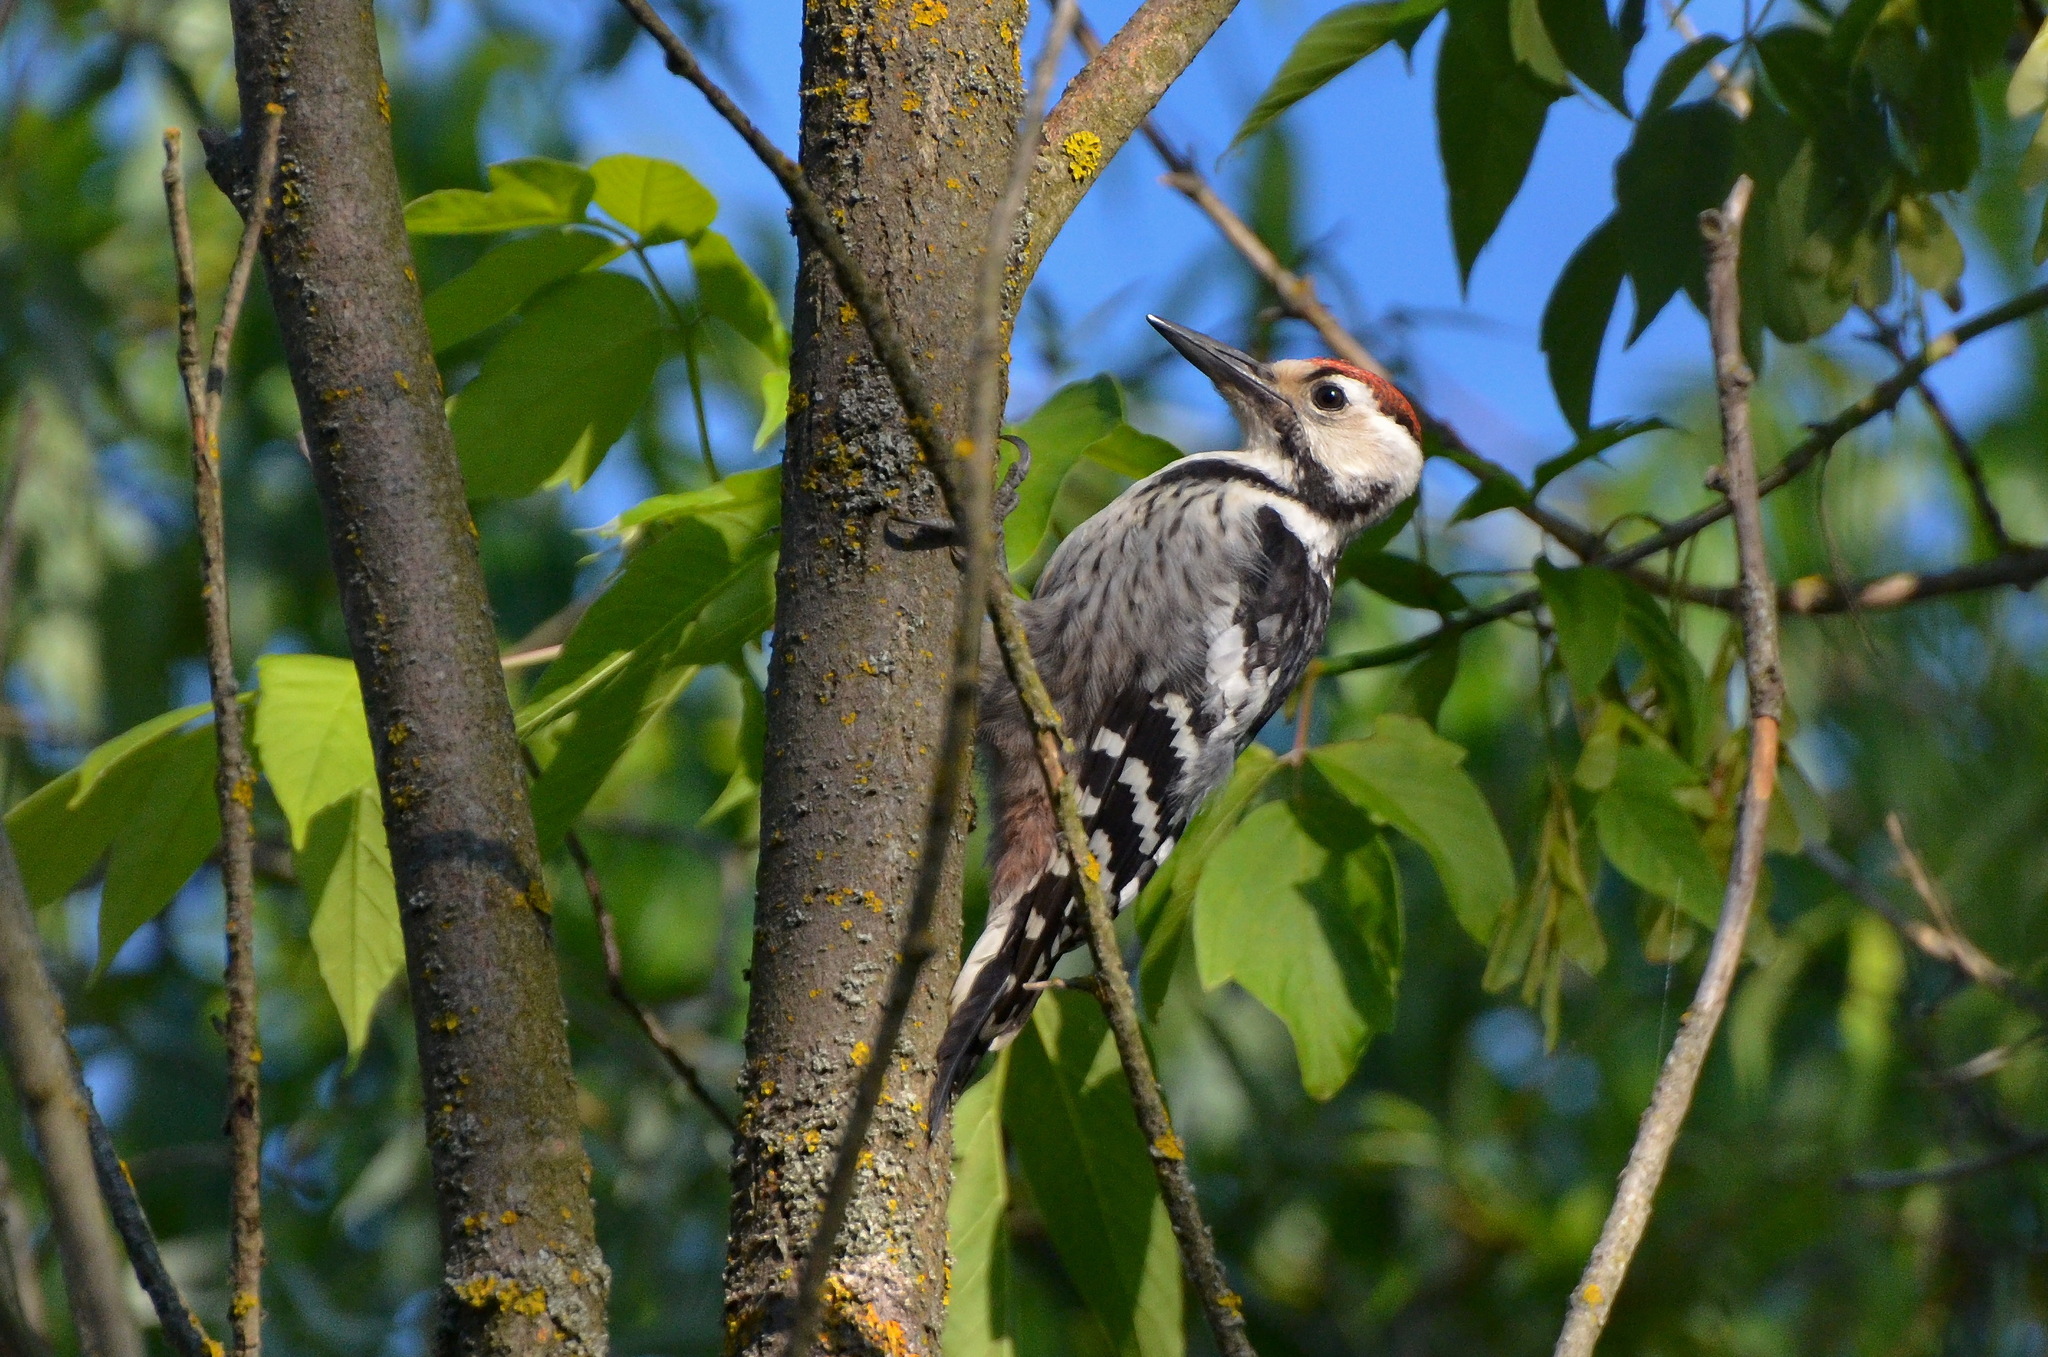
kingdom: Animalia
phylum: Chordata
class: Aves
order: Piciformes
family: Picidae
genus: Dendrocopos
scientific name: Dendrocopos leucotos
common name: White-backed woodpecker
